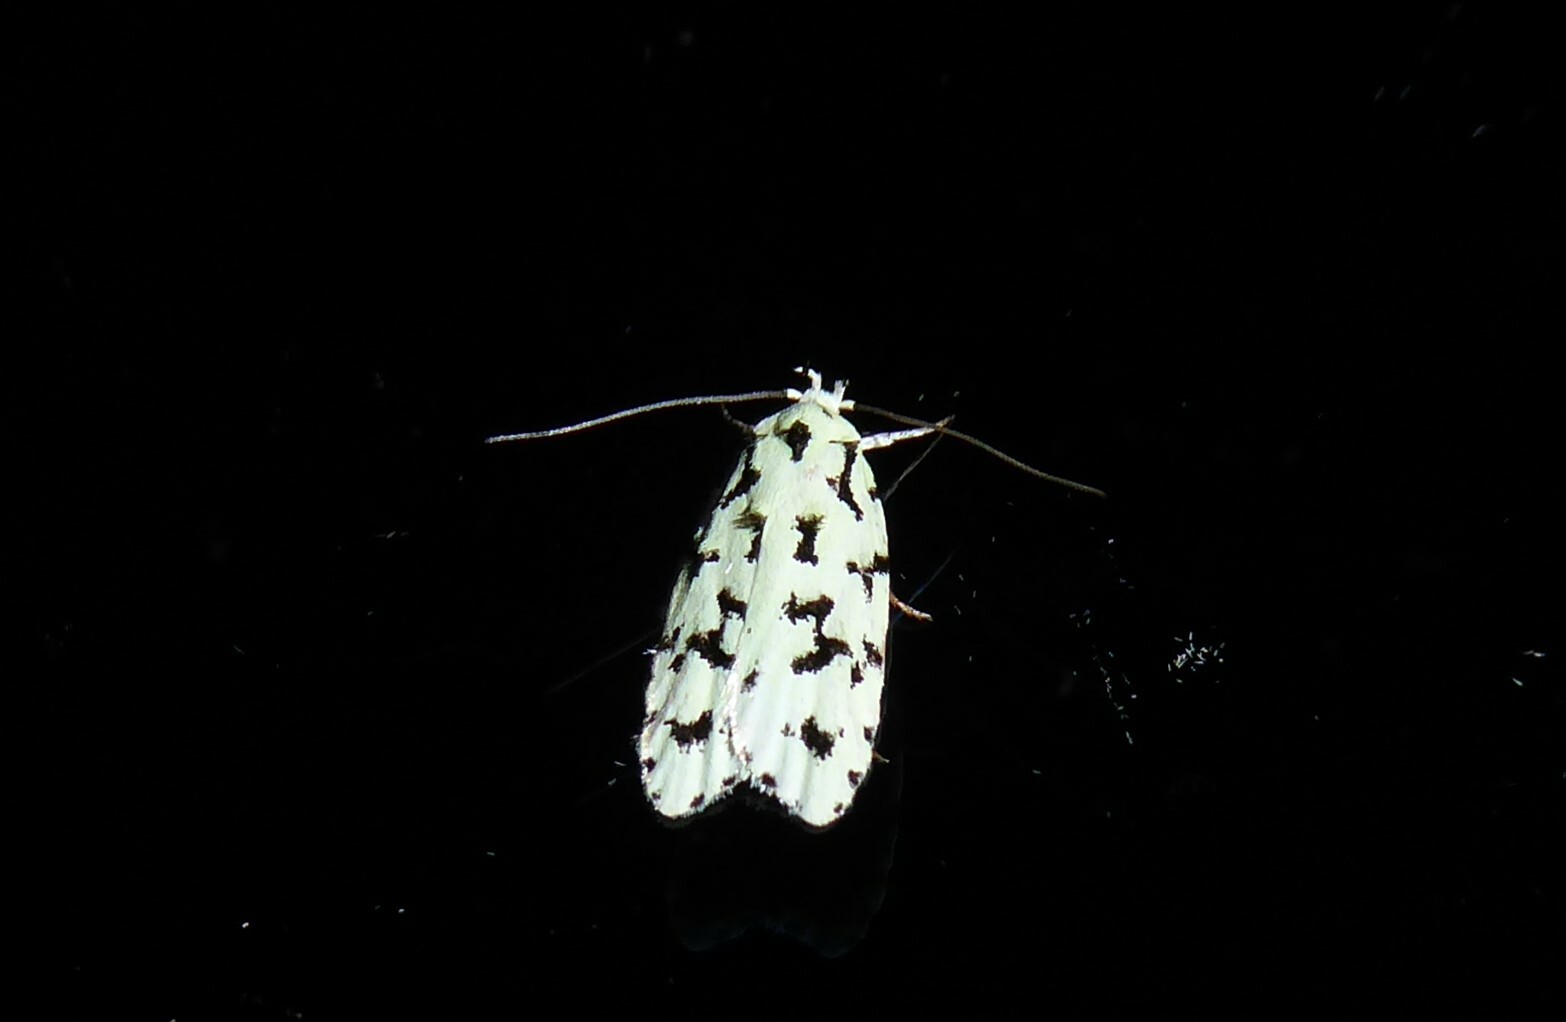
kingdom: Animalia
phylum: Arthropoda
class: Insecta
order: Lepidoptera
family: Oecophoridae
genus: Izatha
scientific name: Izatha huttoni
